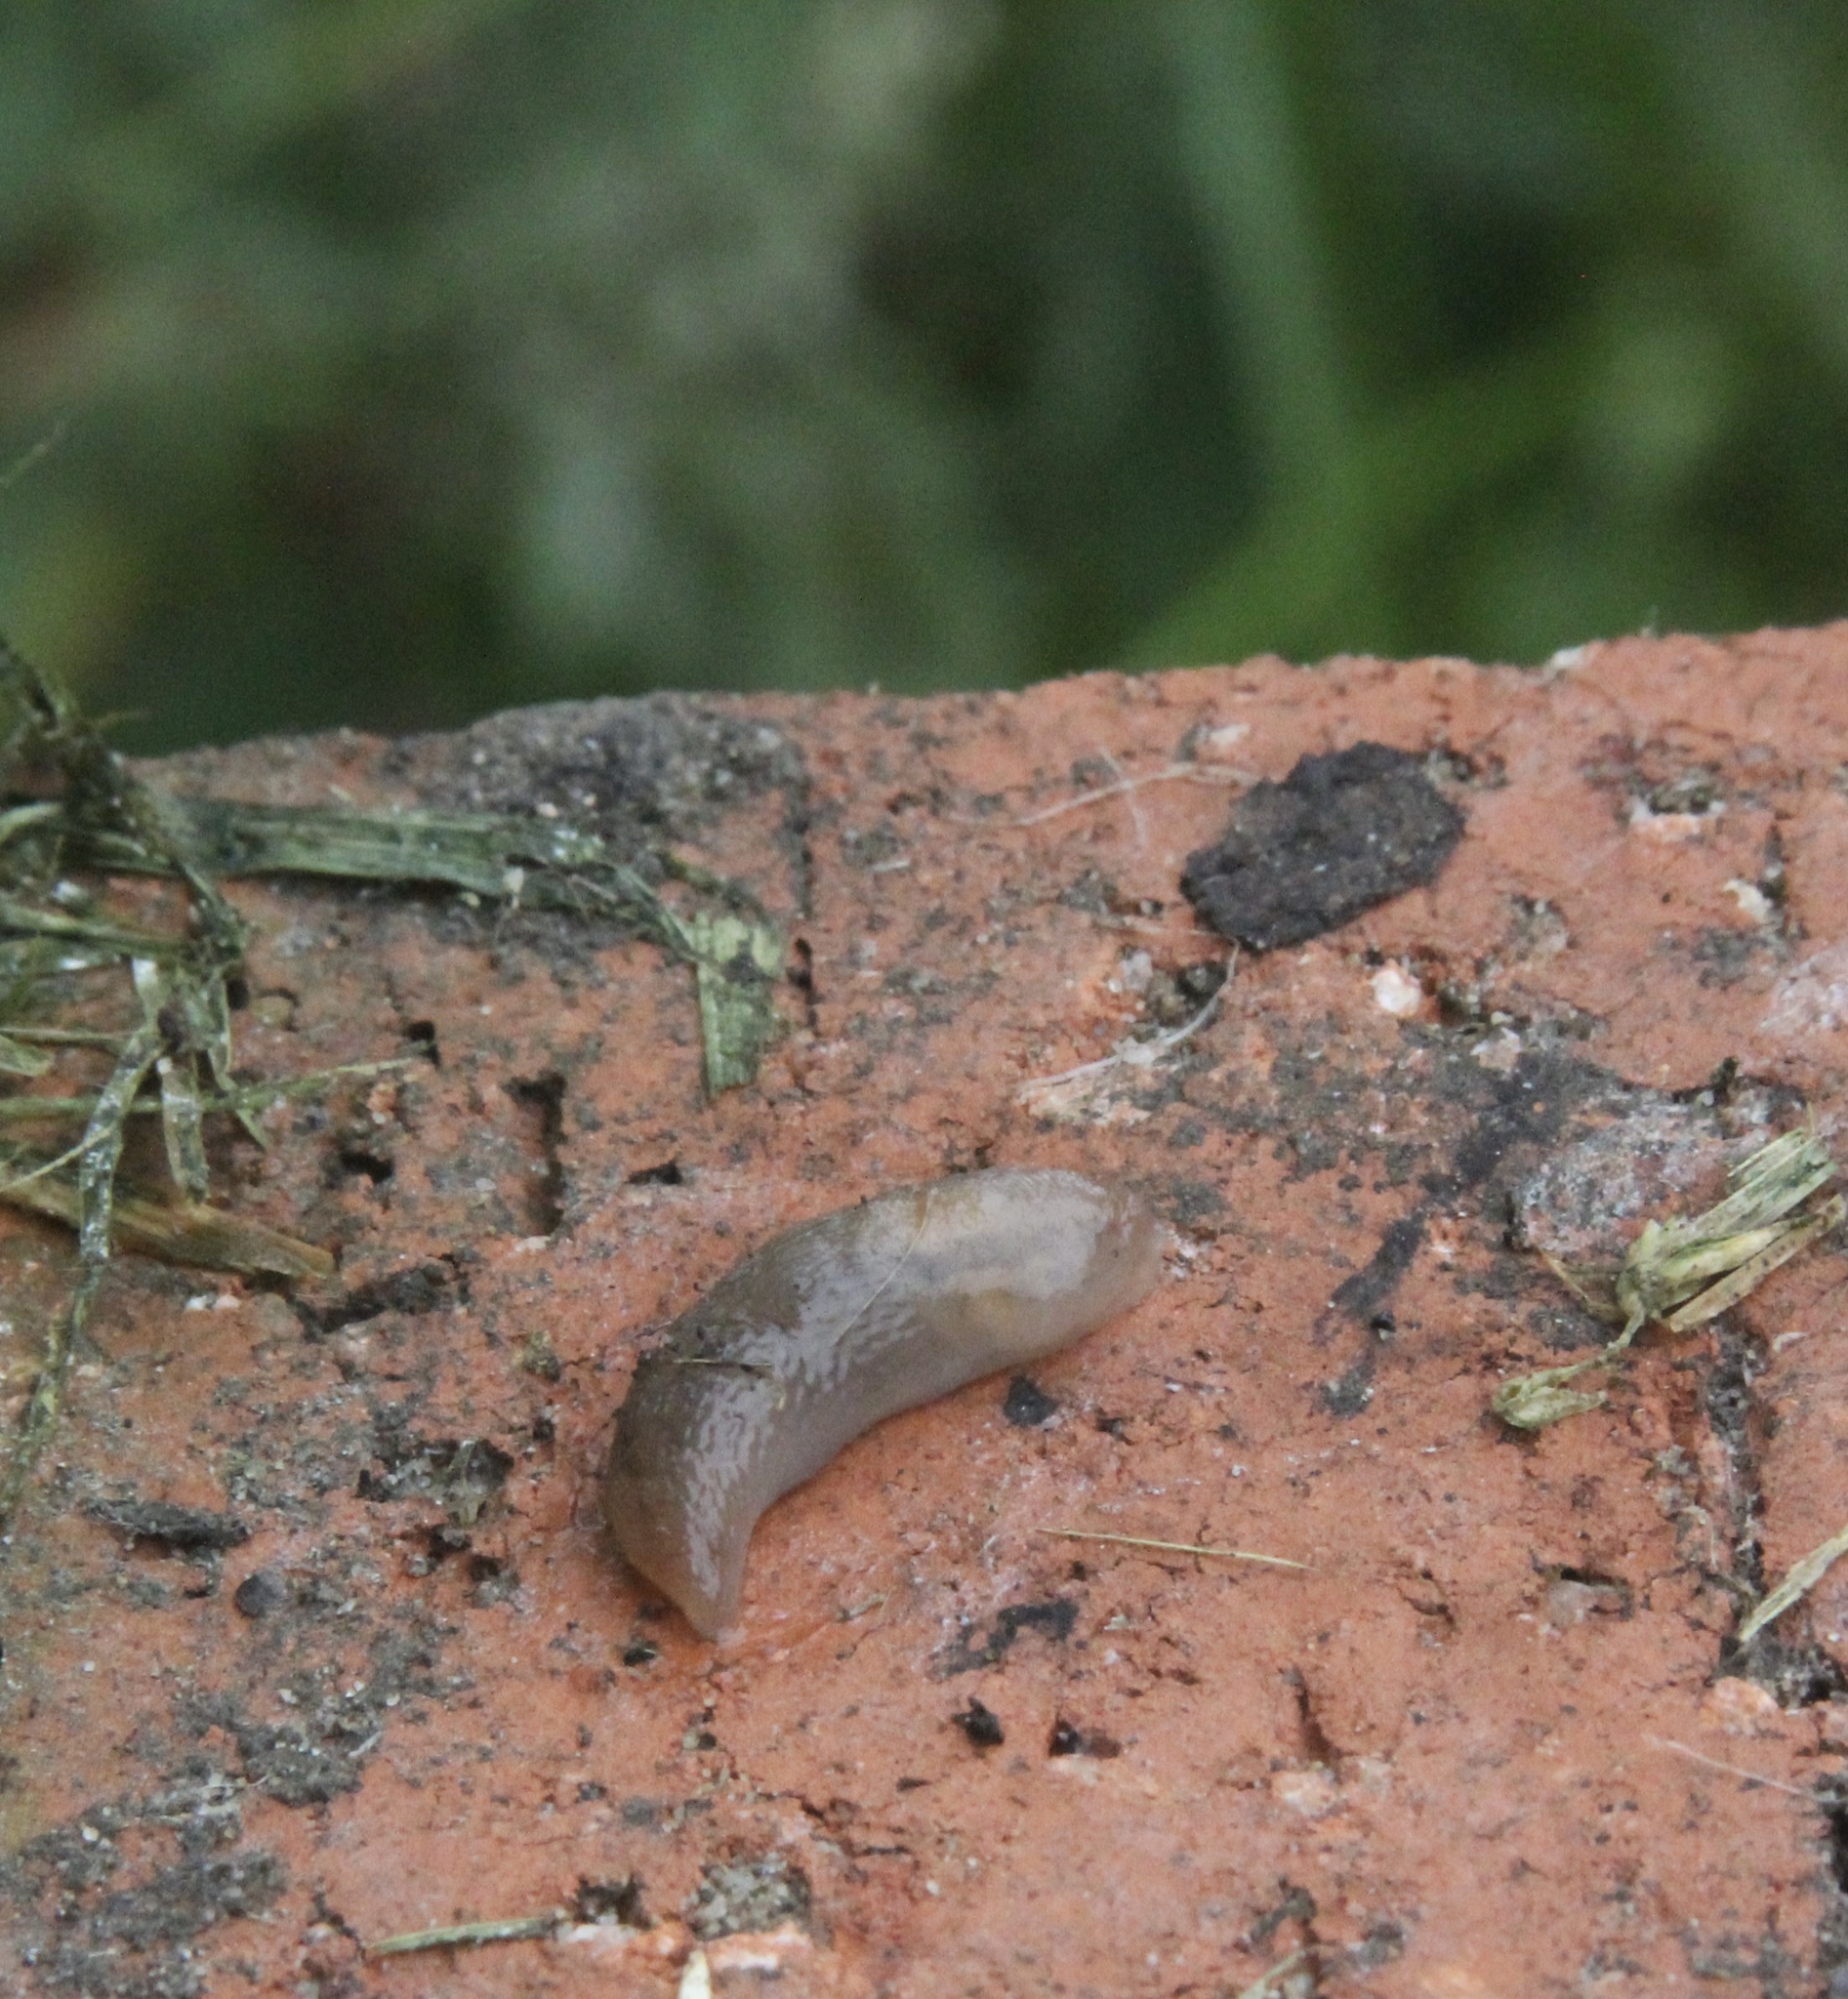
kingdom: Animalia
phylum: Mollusca
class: Gastropoda
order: Stylommatophora
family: Limacidae
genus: Ambigolimax
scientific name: Ambigolimax
